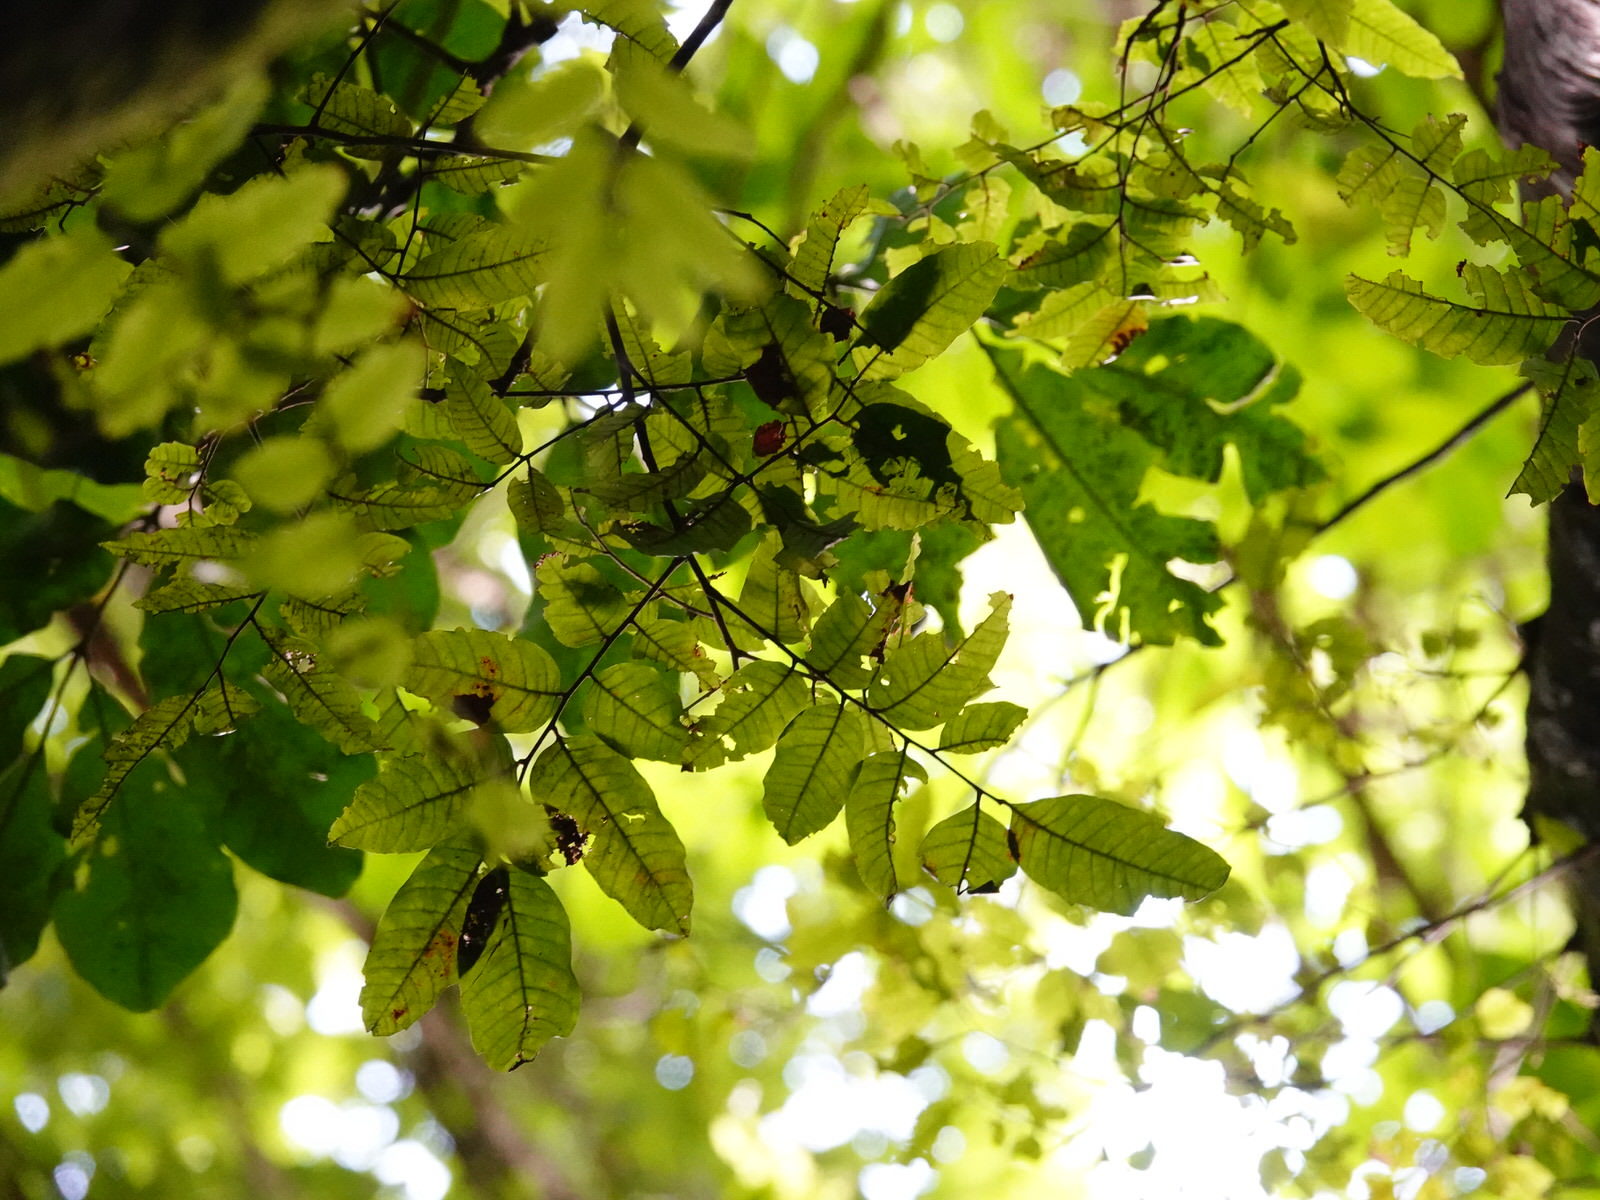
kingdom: Fungi
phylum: Basidiomycota
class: Agaricomycetes
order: Agaricales
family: Tubariaceae
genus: Cyclocybe
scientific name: Cyclocybe parasitica
